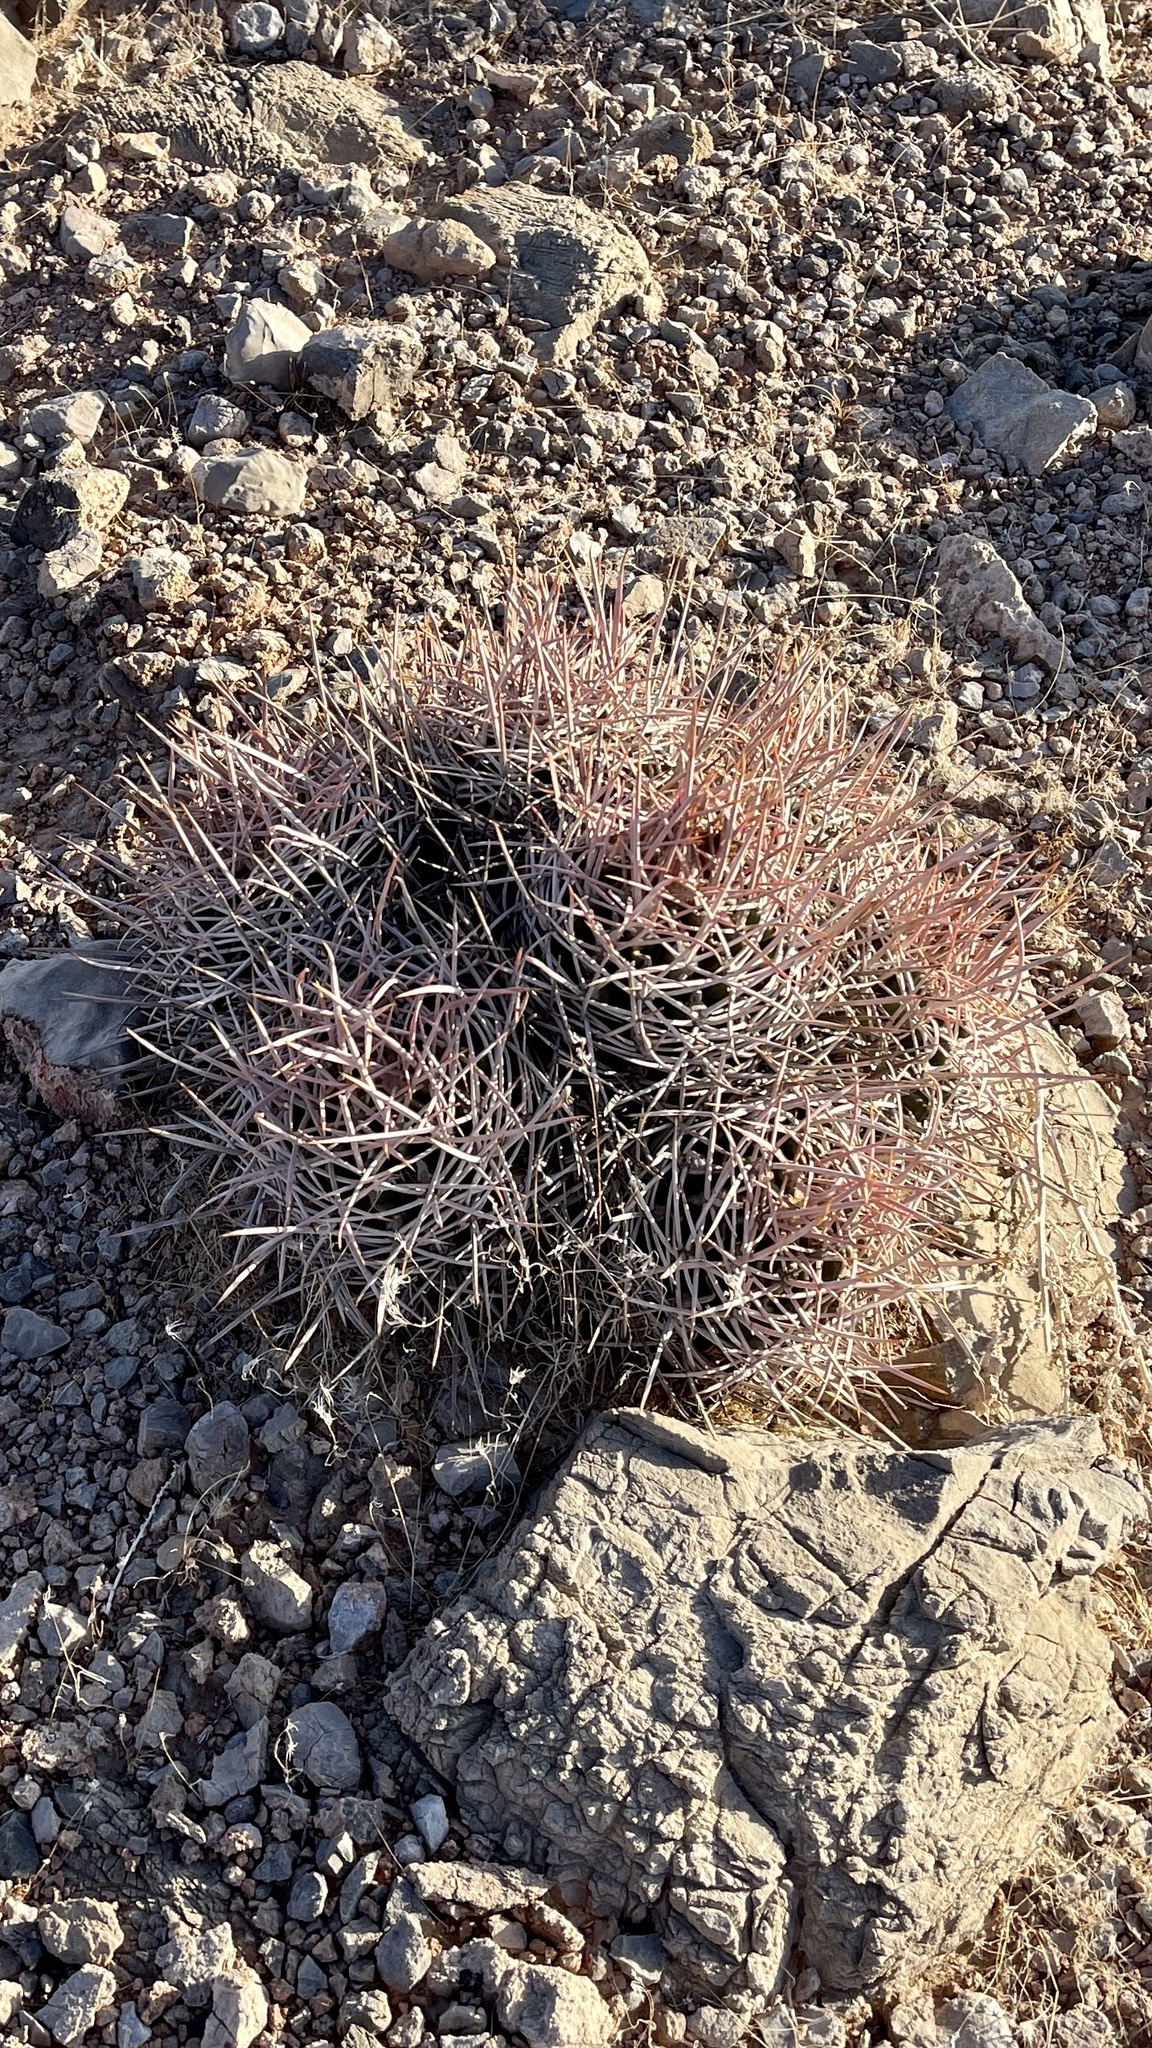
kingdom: Plantae
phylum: Tracheophyta
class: Magnoliopsida
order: Caryophyllales
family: Cactaceae
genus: Echinocactus
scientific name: Echinocactus polycephalus
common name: Cottontop cactus
